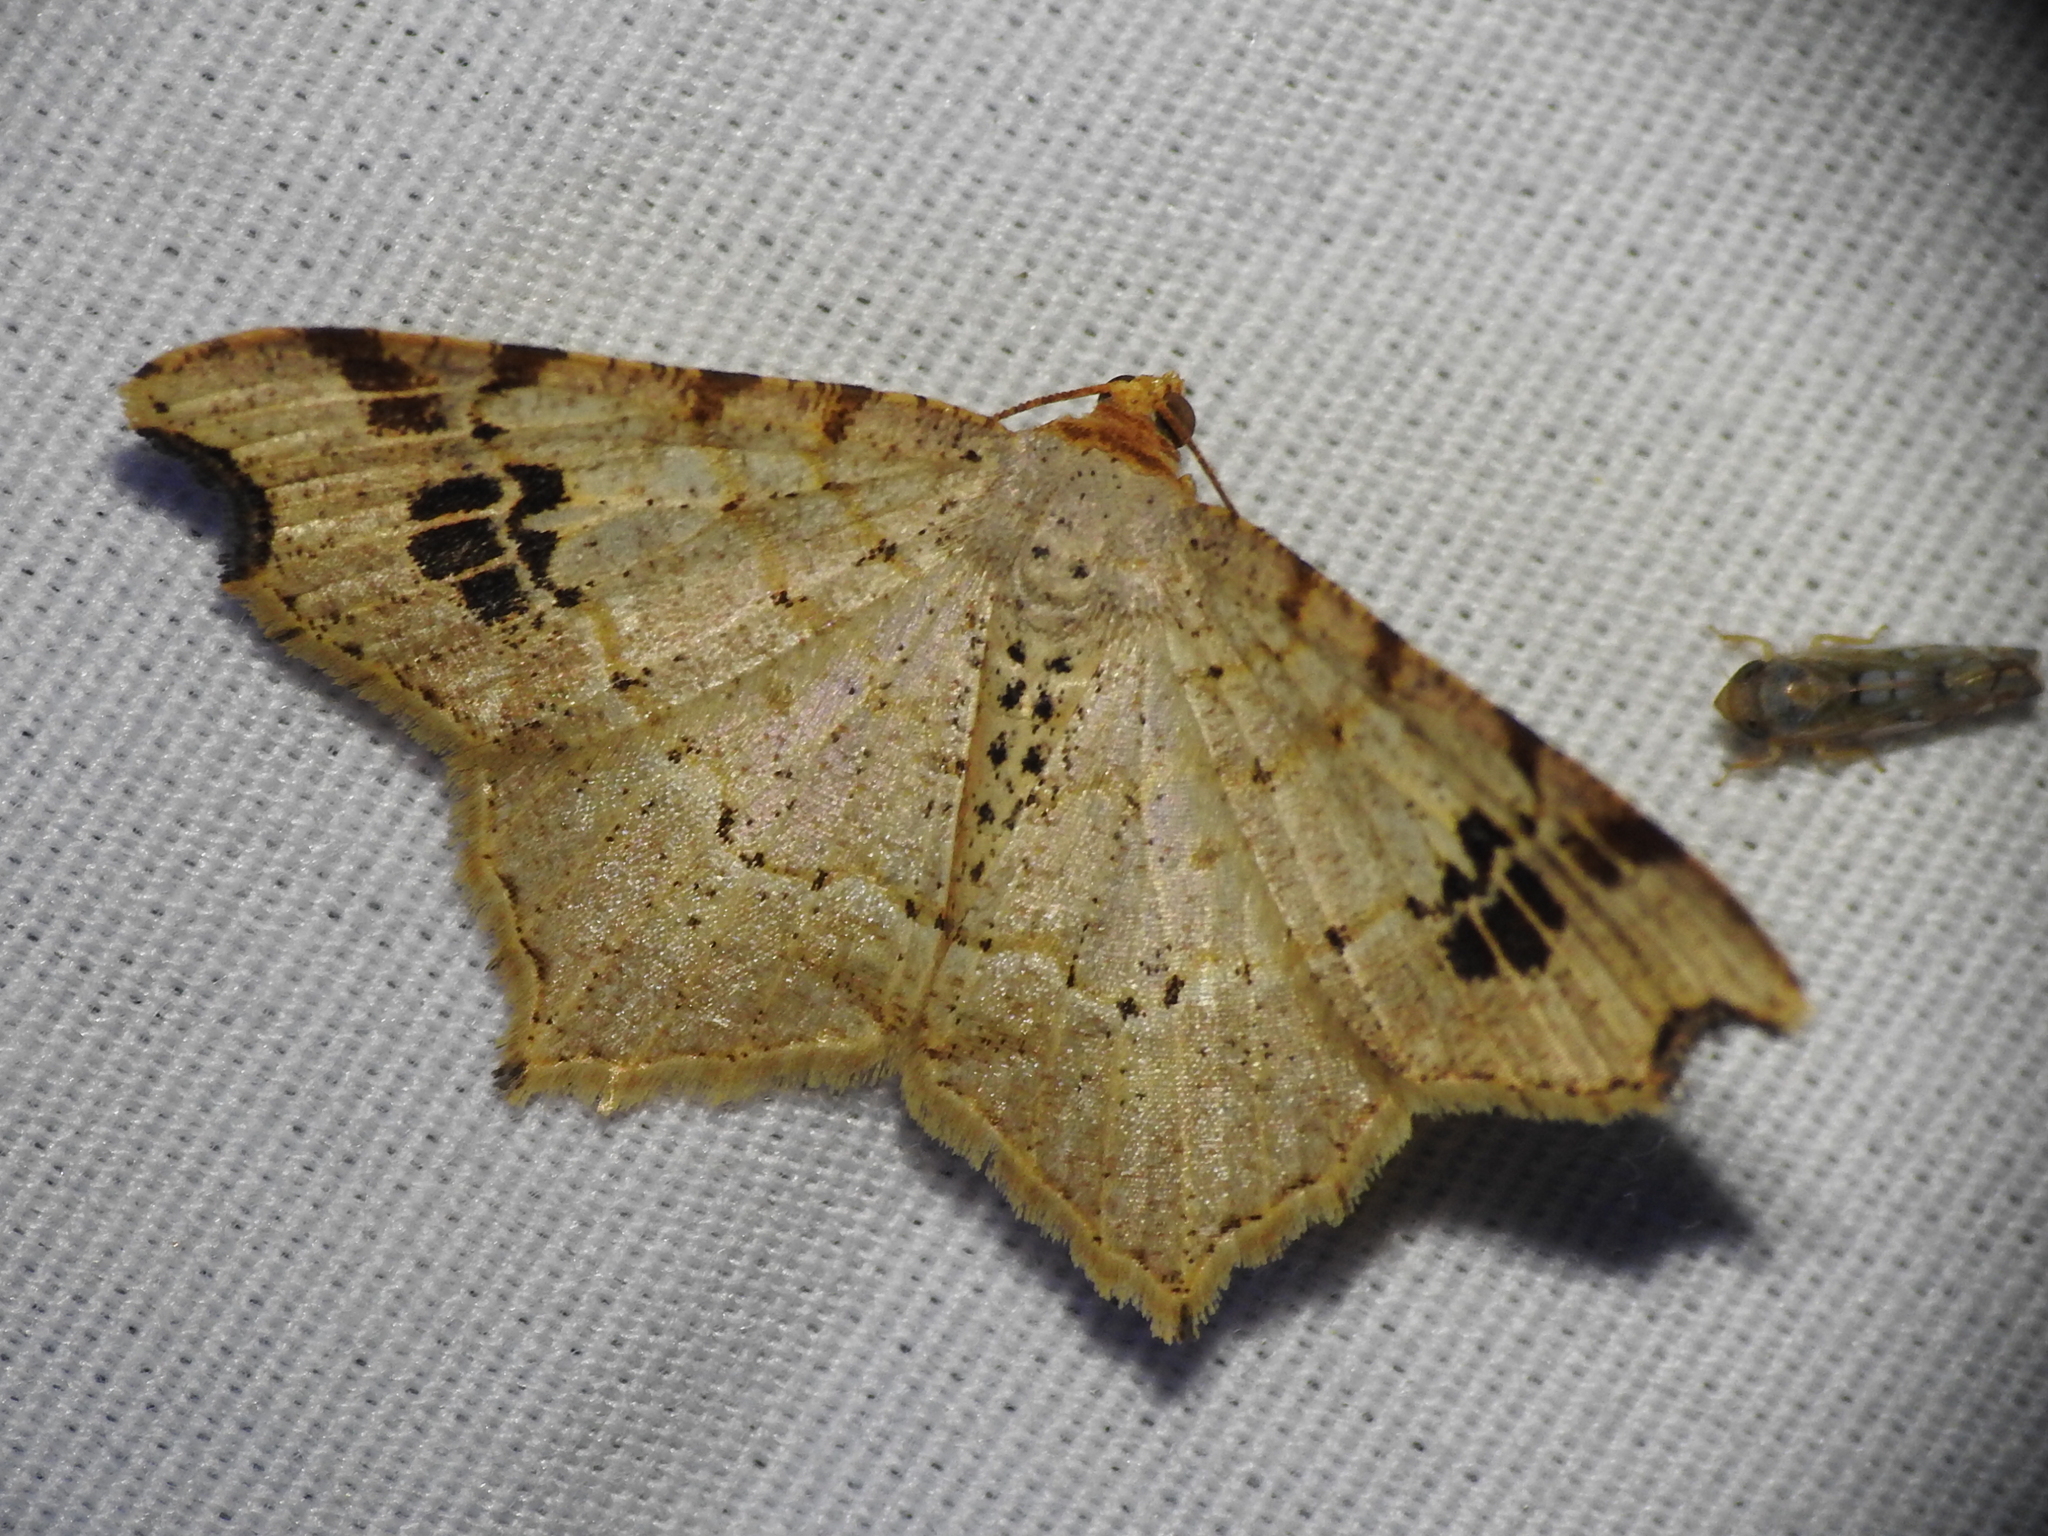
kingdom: Animalia
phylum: Arthropoda
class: Insecta
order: Lepidoptera
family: Geometridae
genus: Macaria
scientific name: Macaria aemulataria
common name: Common angle
